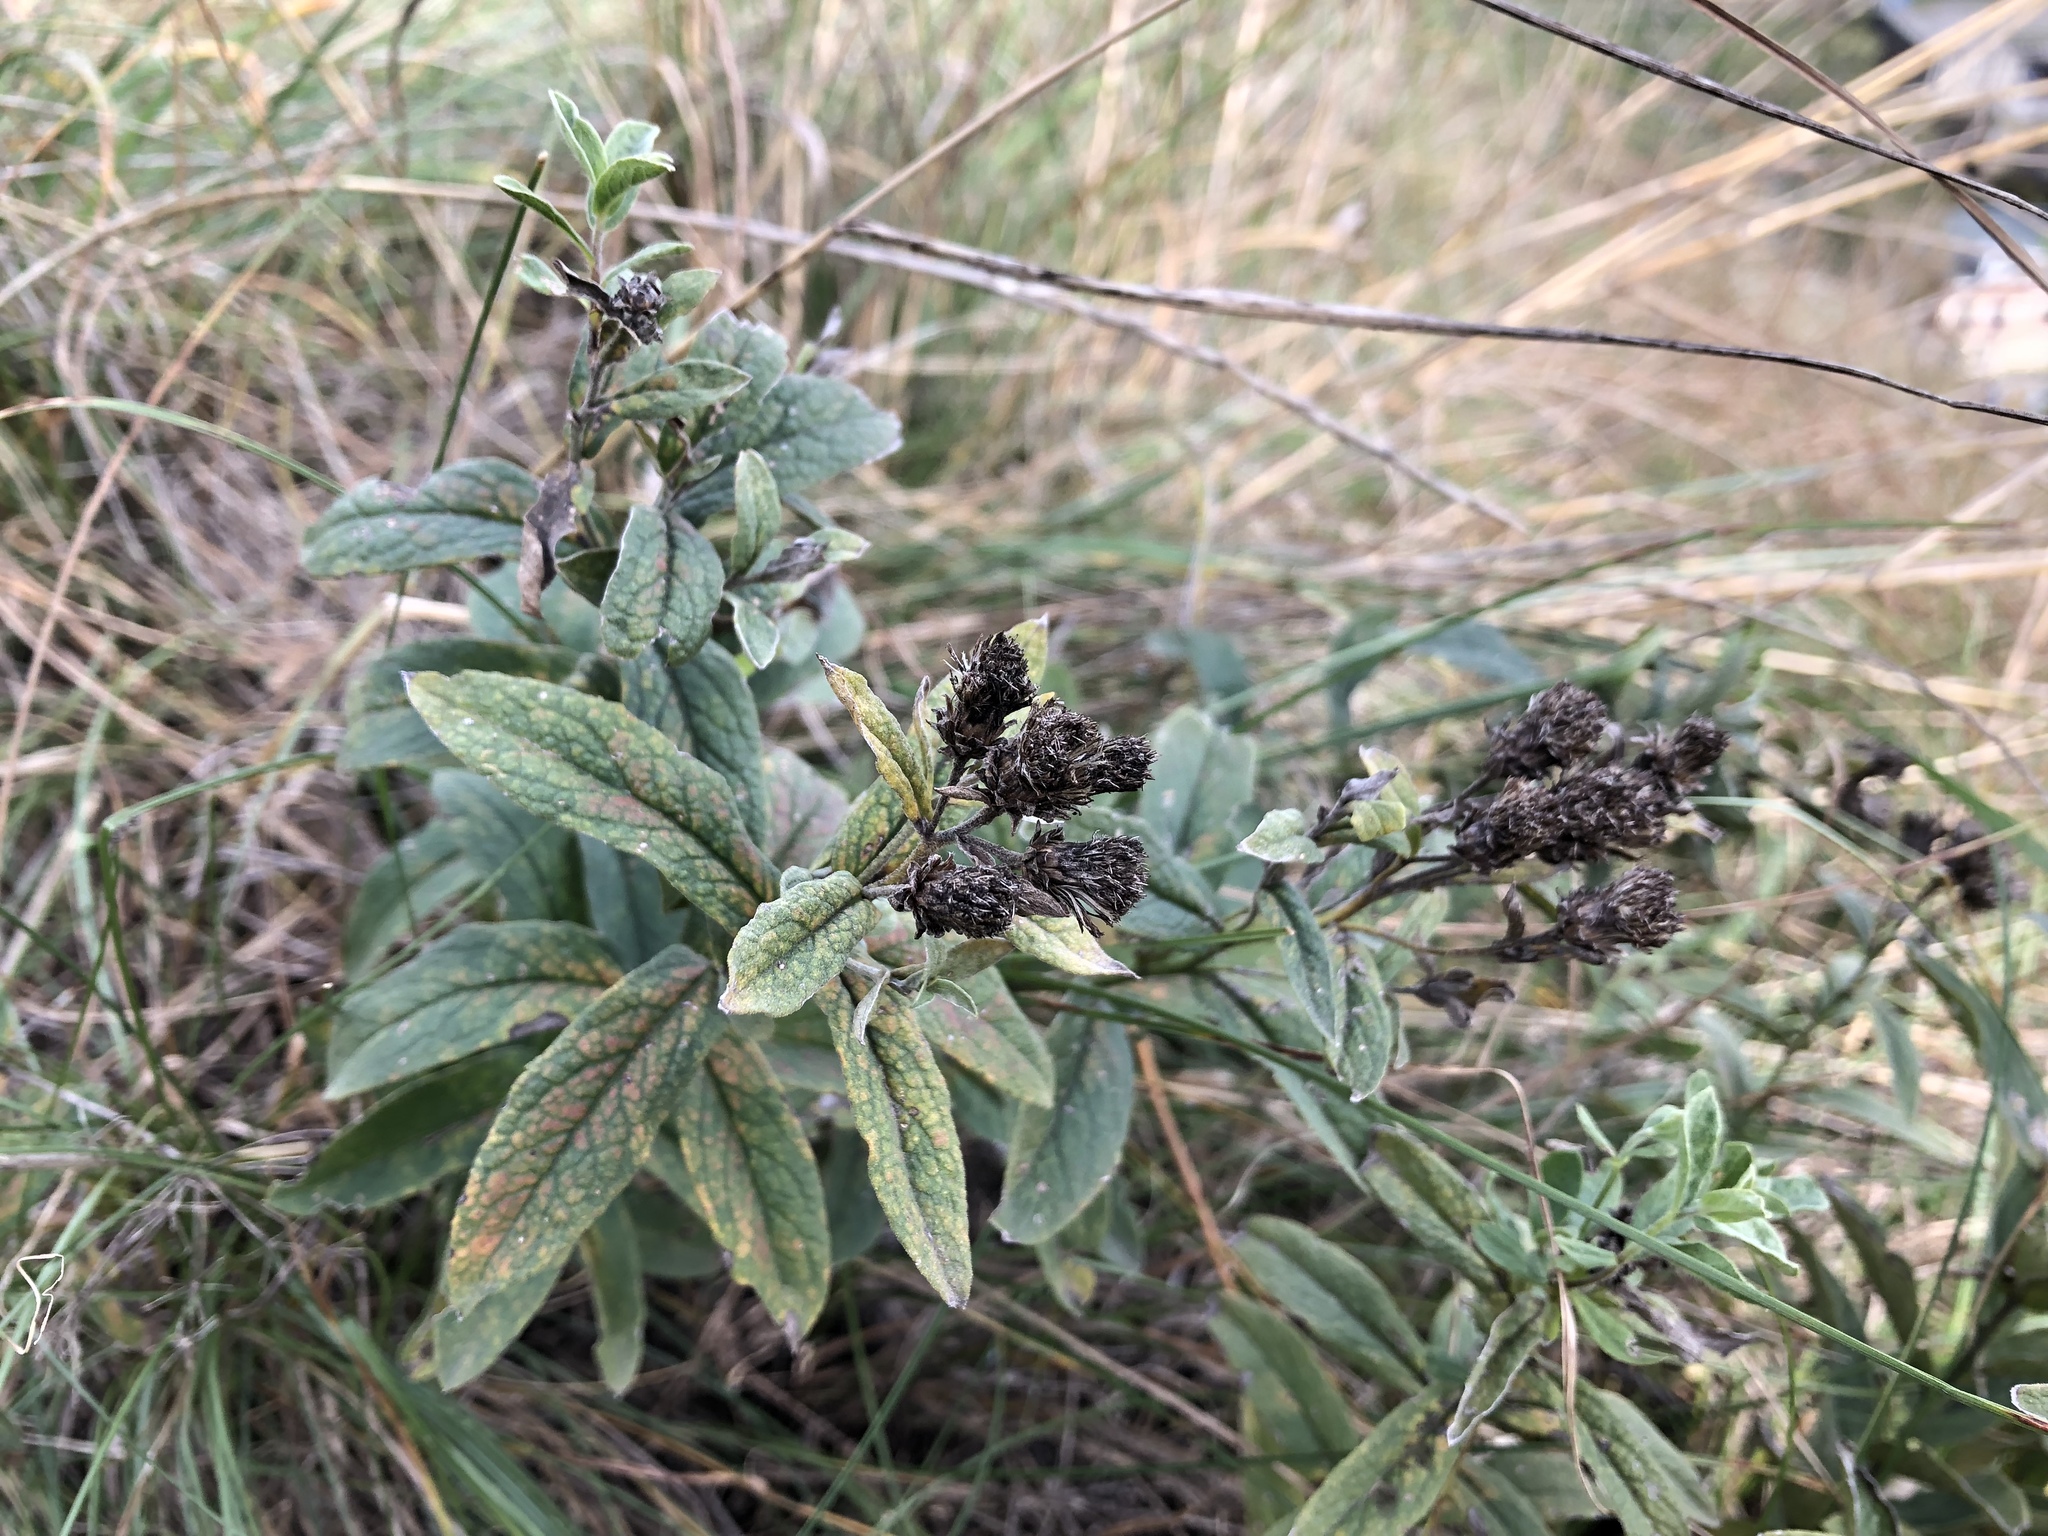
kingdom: Plantae
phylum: Tracheophyta
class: Magnoliopsida
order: Asterales
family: Asteraceae
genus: Pentanema
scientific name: Pentanema germanicum
